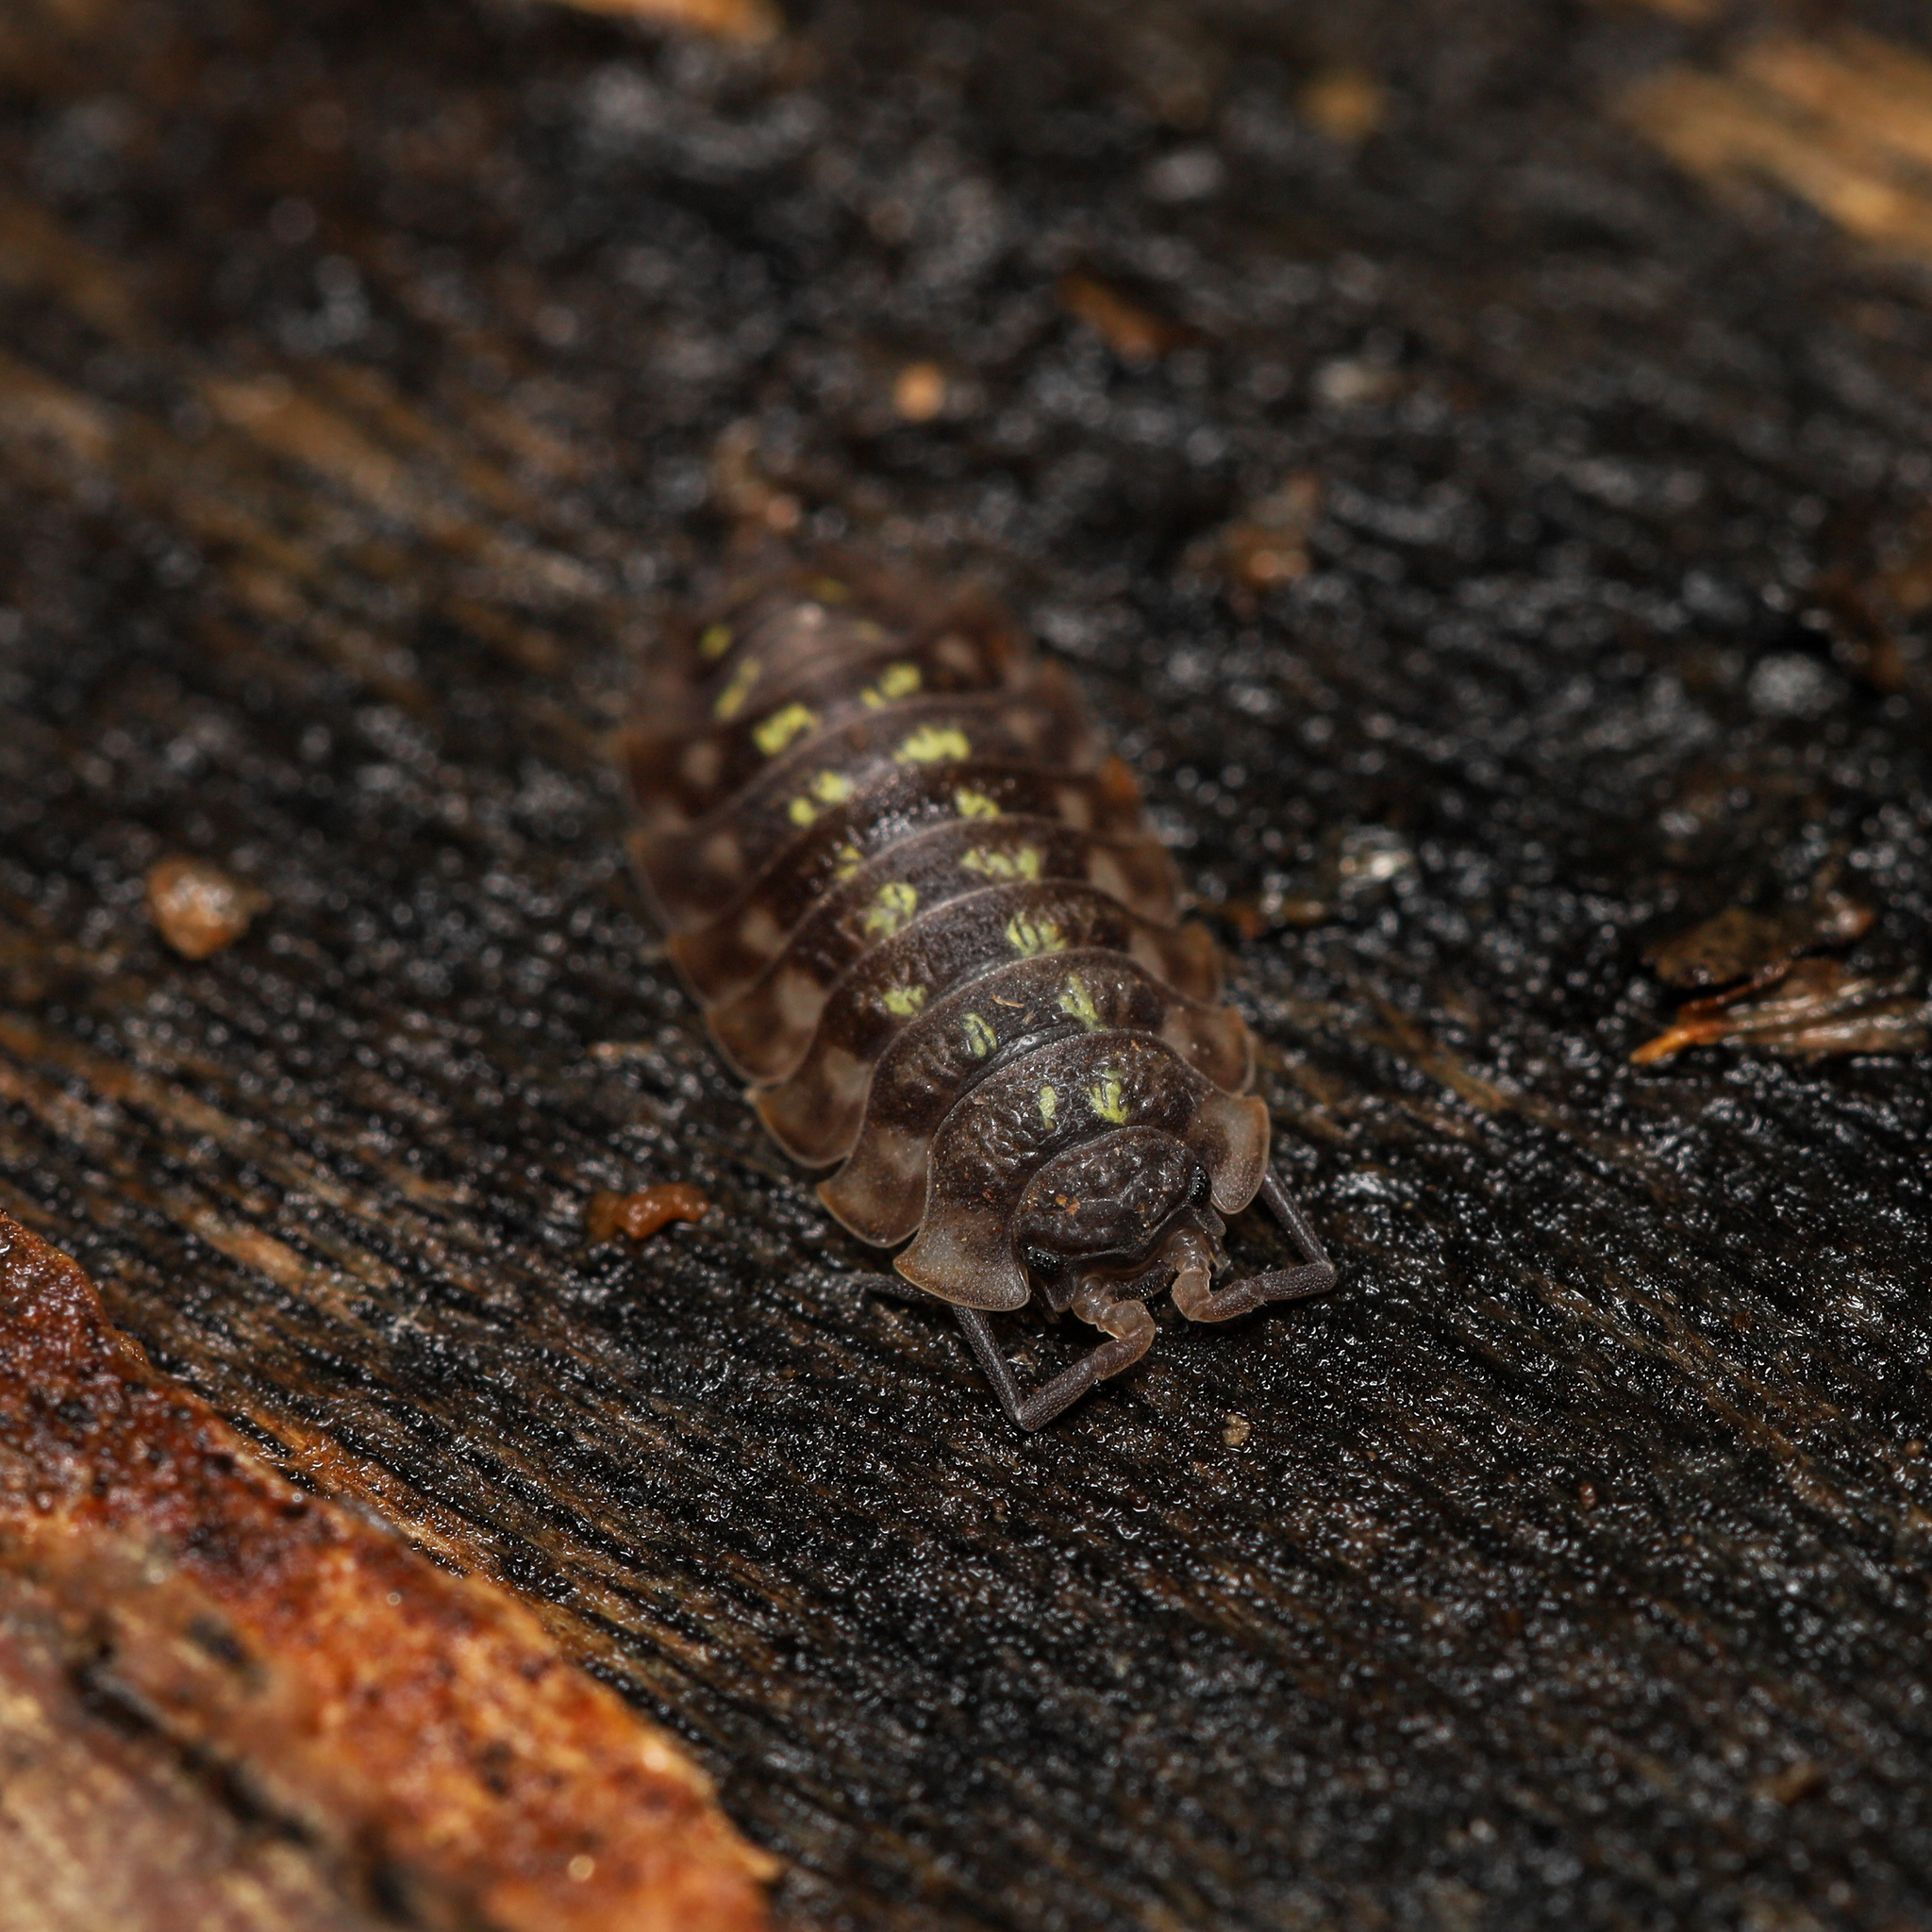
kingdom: Animalia
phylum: Arthropoda
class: Malacostraca
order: Isopoda
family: Oniscidae
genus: Oniscus
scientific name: Oniscus asellus
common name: Common shiny woodlouse
